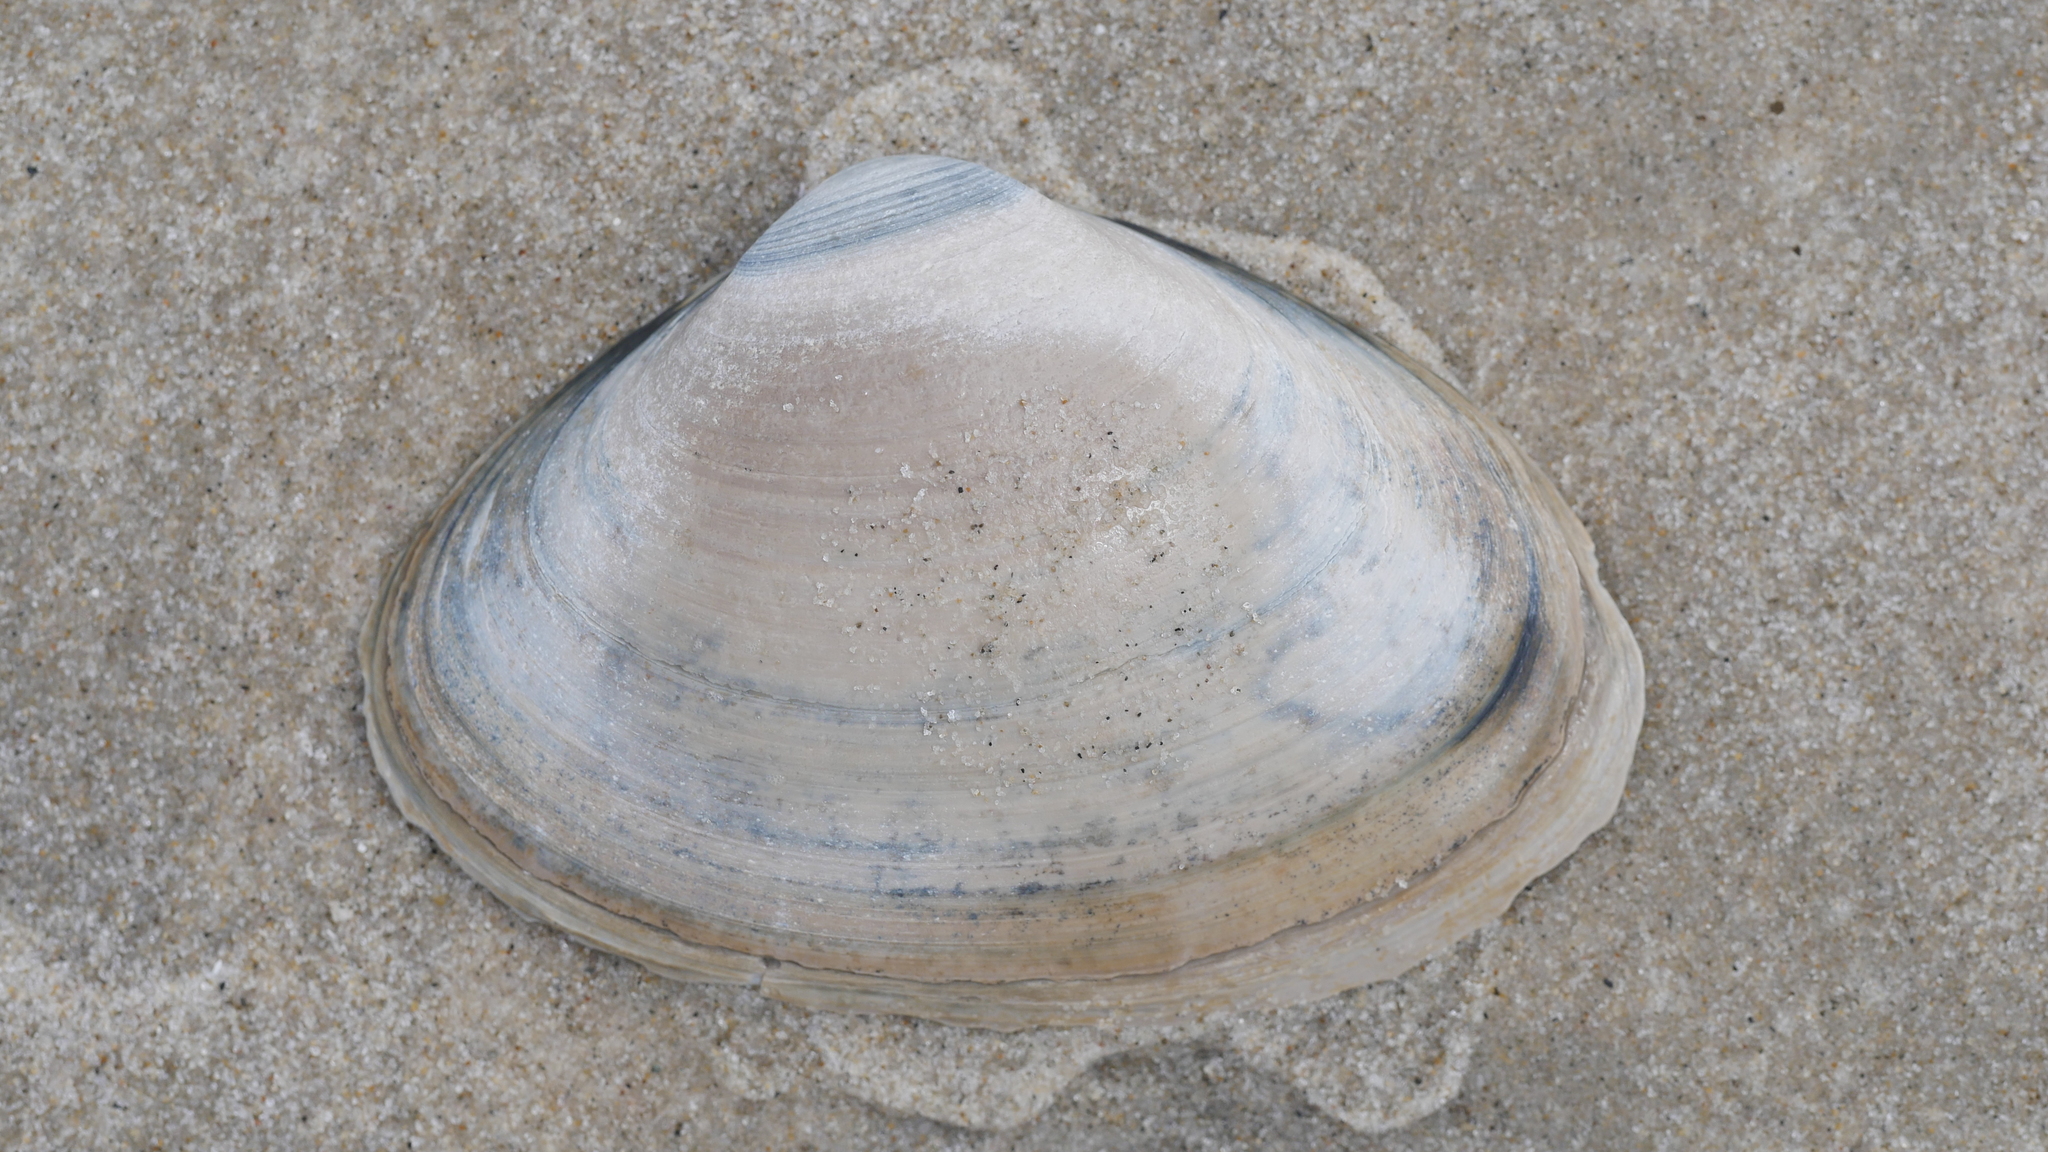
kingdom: Animalia
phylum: Mollusca
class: Bivalvia
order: Venerida
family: Mactridae
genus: Spisula
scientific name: Spisula solidissima
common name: Atlantic surf clam
